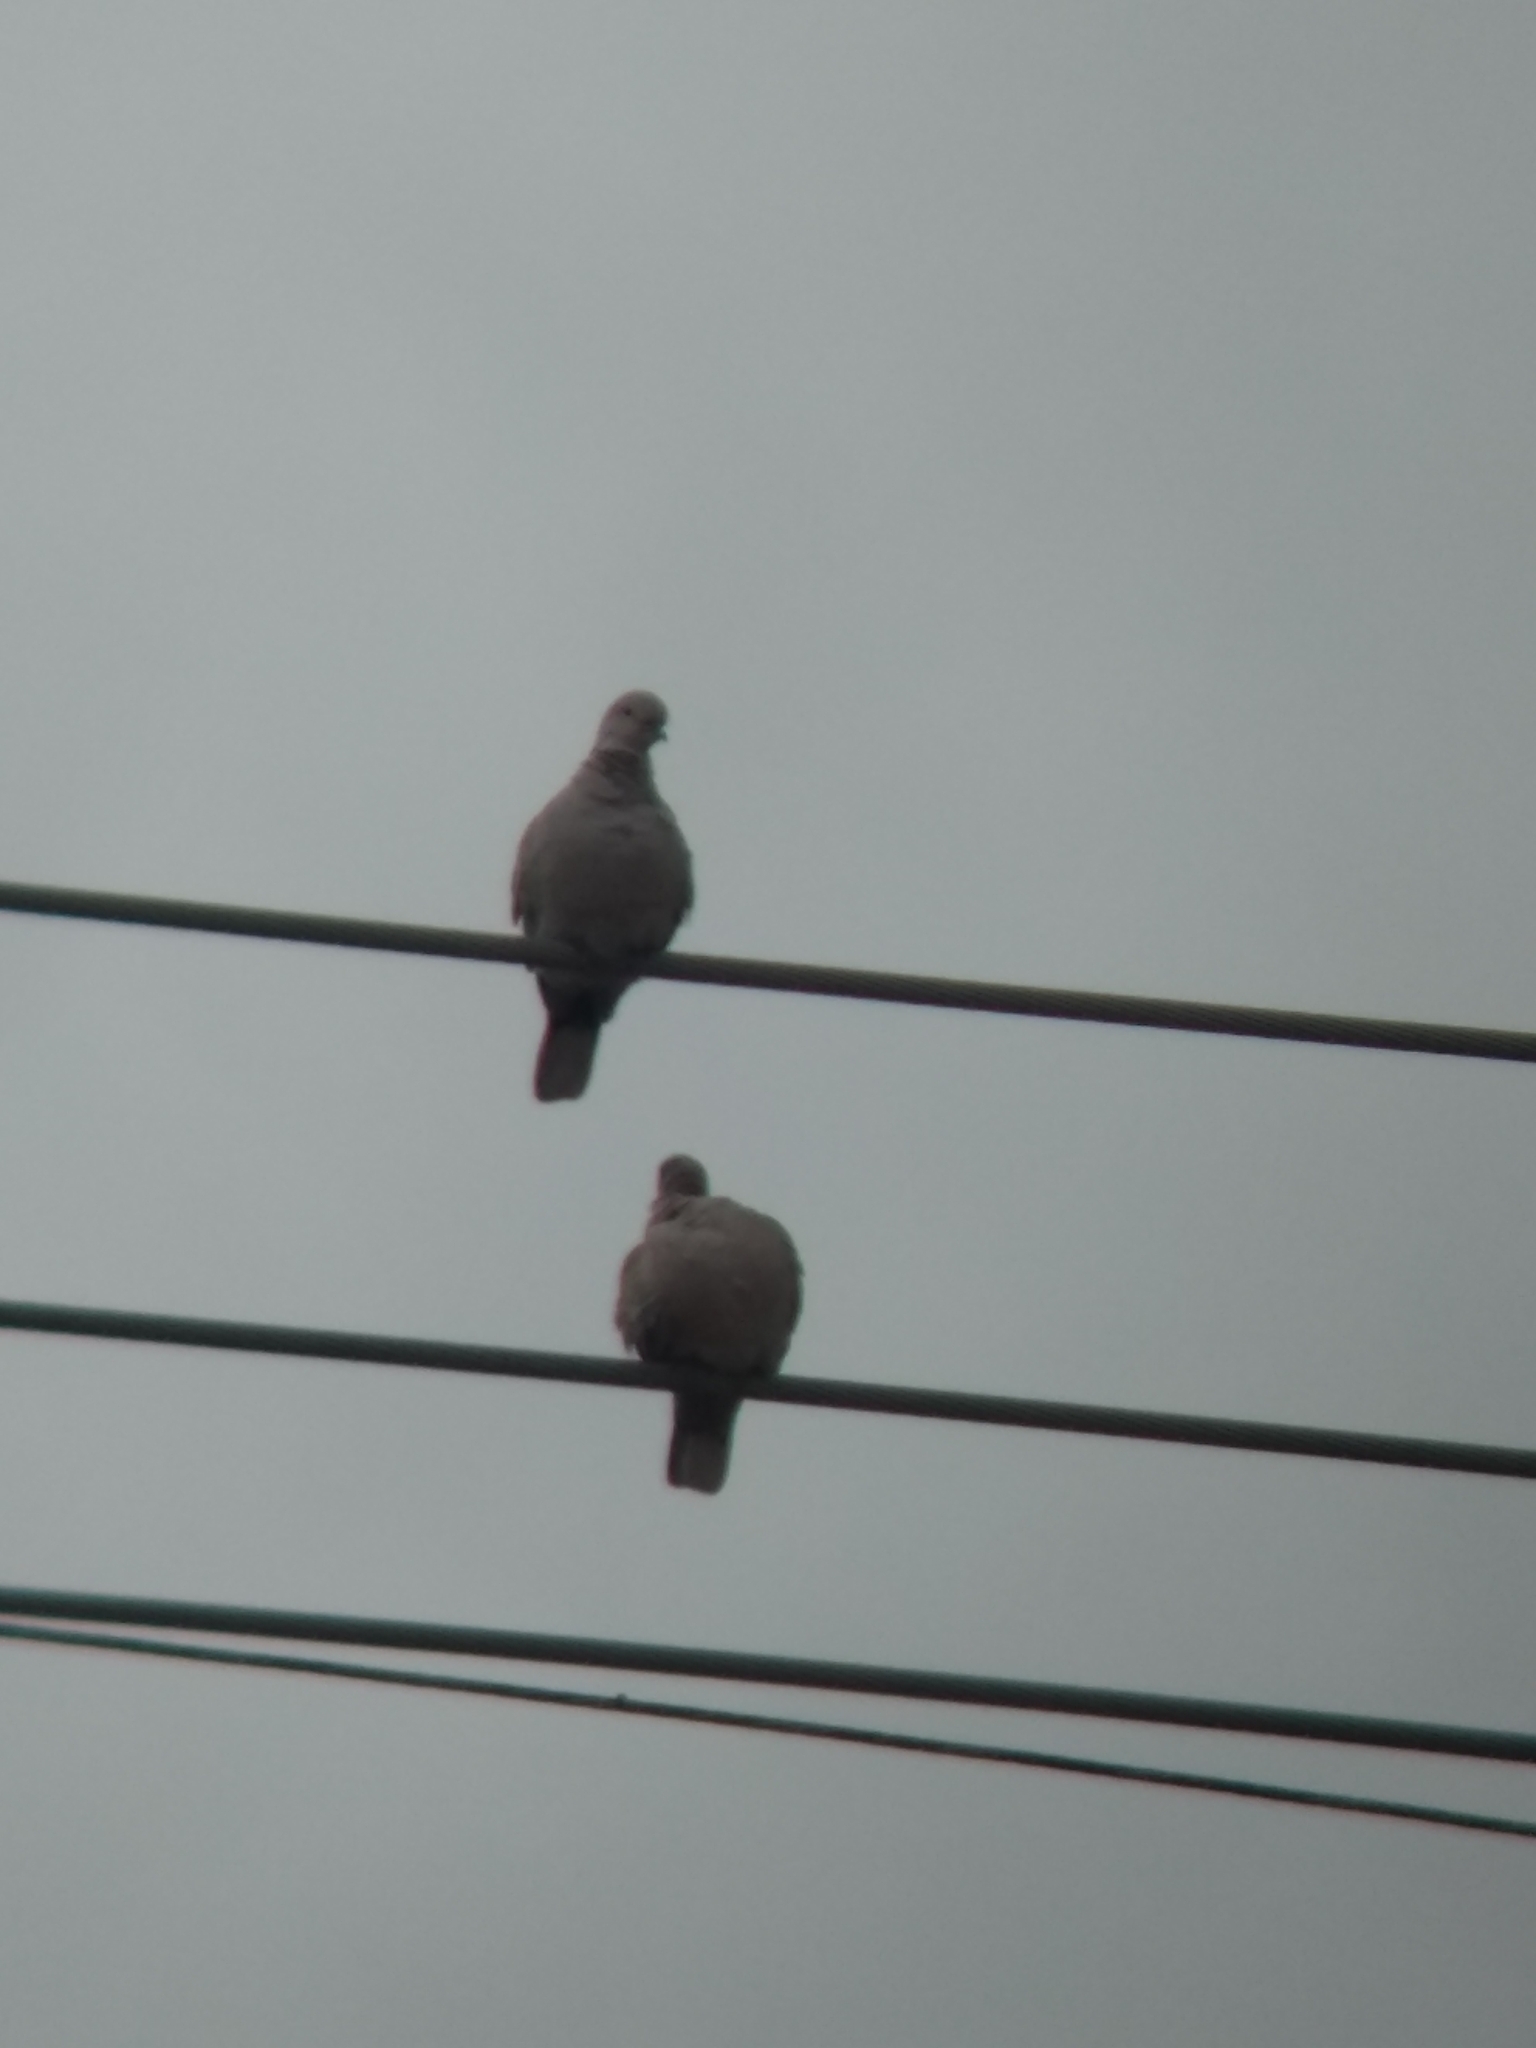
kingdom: Animalia
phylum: Chordata
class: Aves
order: Columbiformes
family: Columbidae
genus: Streptopelia
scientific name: Streptopelia decaocto
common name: Eurasian collared dove
